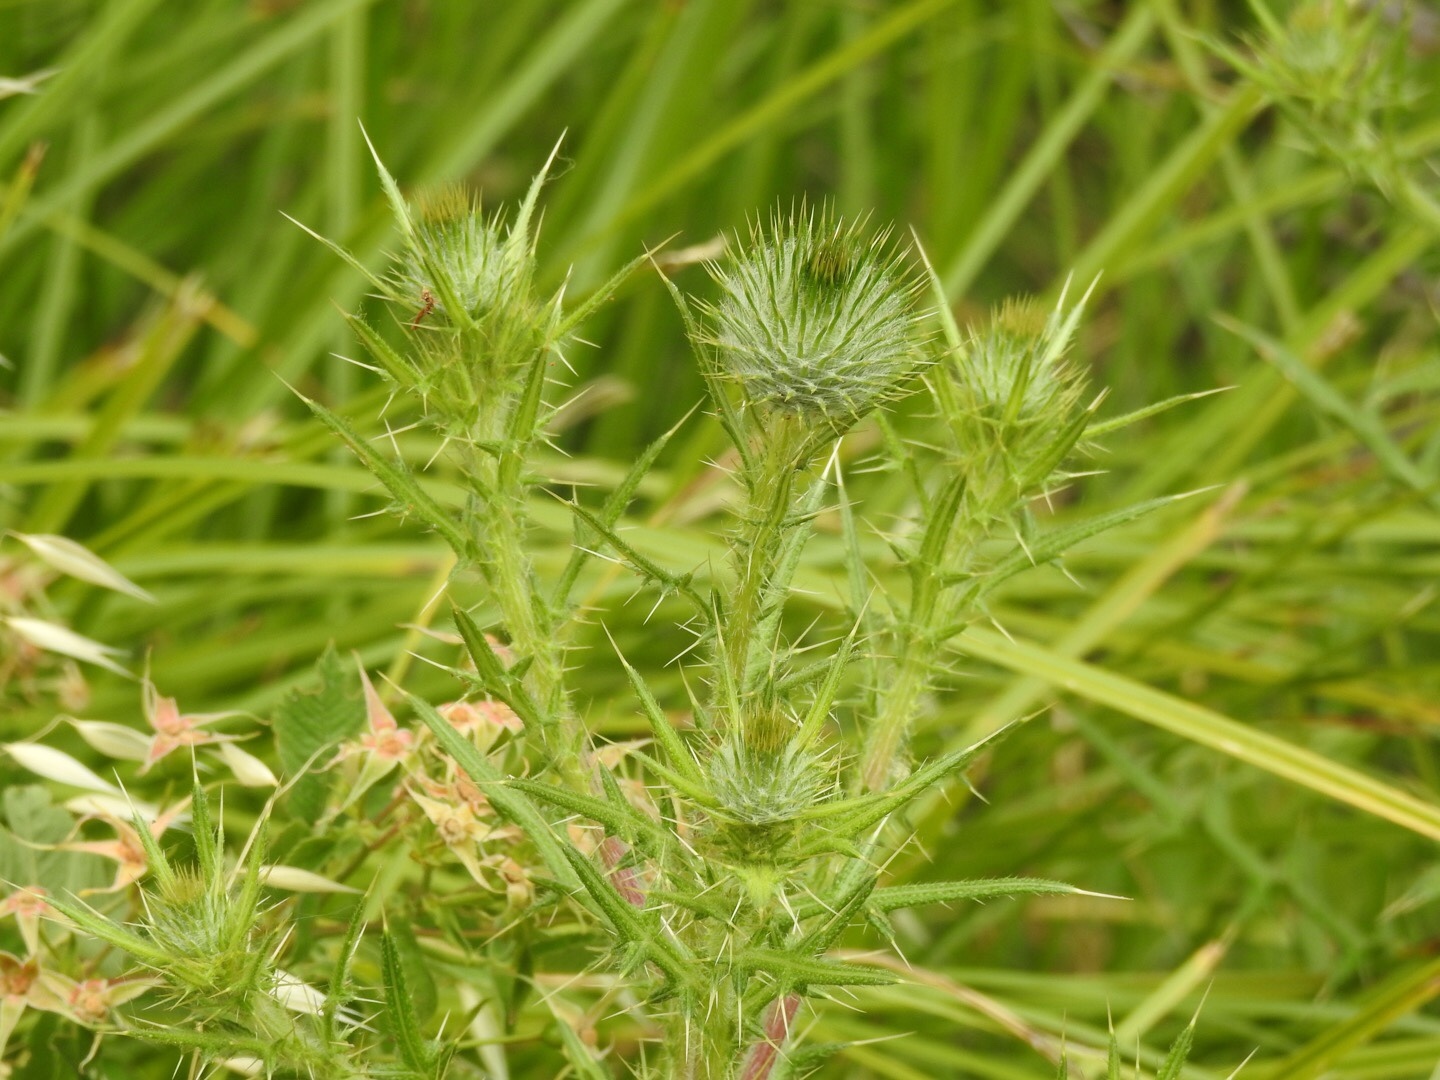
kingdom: Plantae
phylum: Tracheophyta
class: Magnoliopsida
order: Asterales
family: Asteraceae
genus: Cirsium
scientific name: Cirsium vulgare
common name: Bull thistle
